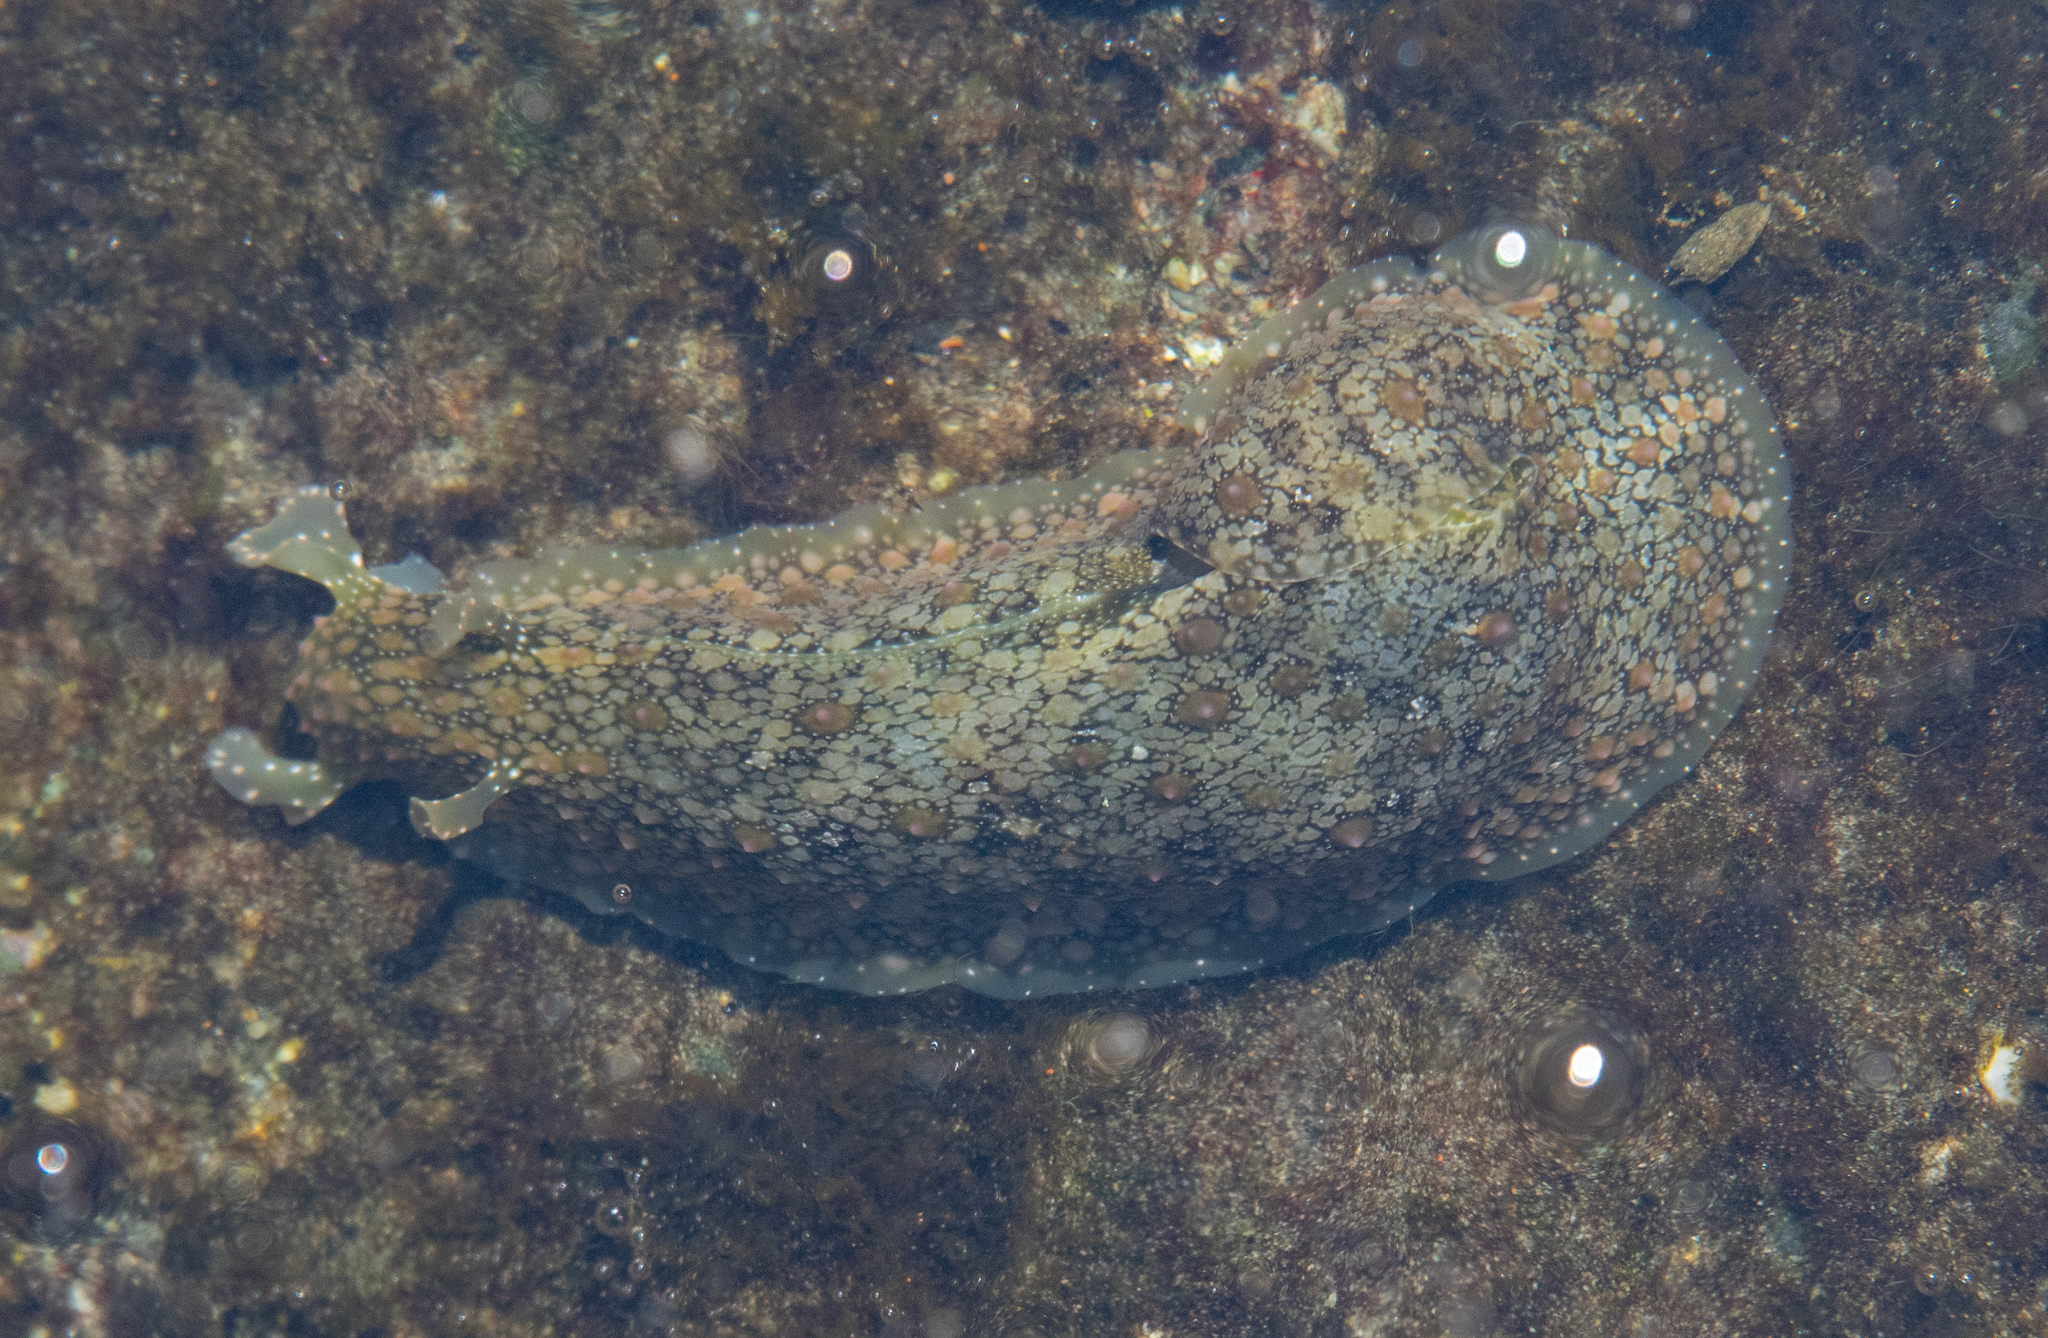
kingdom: Animalia
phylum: Mollusca
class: Gastropoda
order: Aplysiida
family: Aplysiidae
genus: Dolabrifera
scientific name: Dolabrifera nicaraguana
